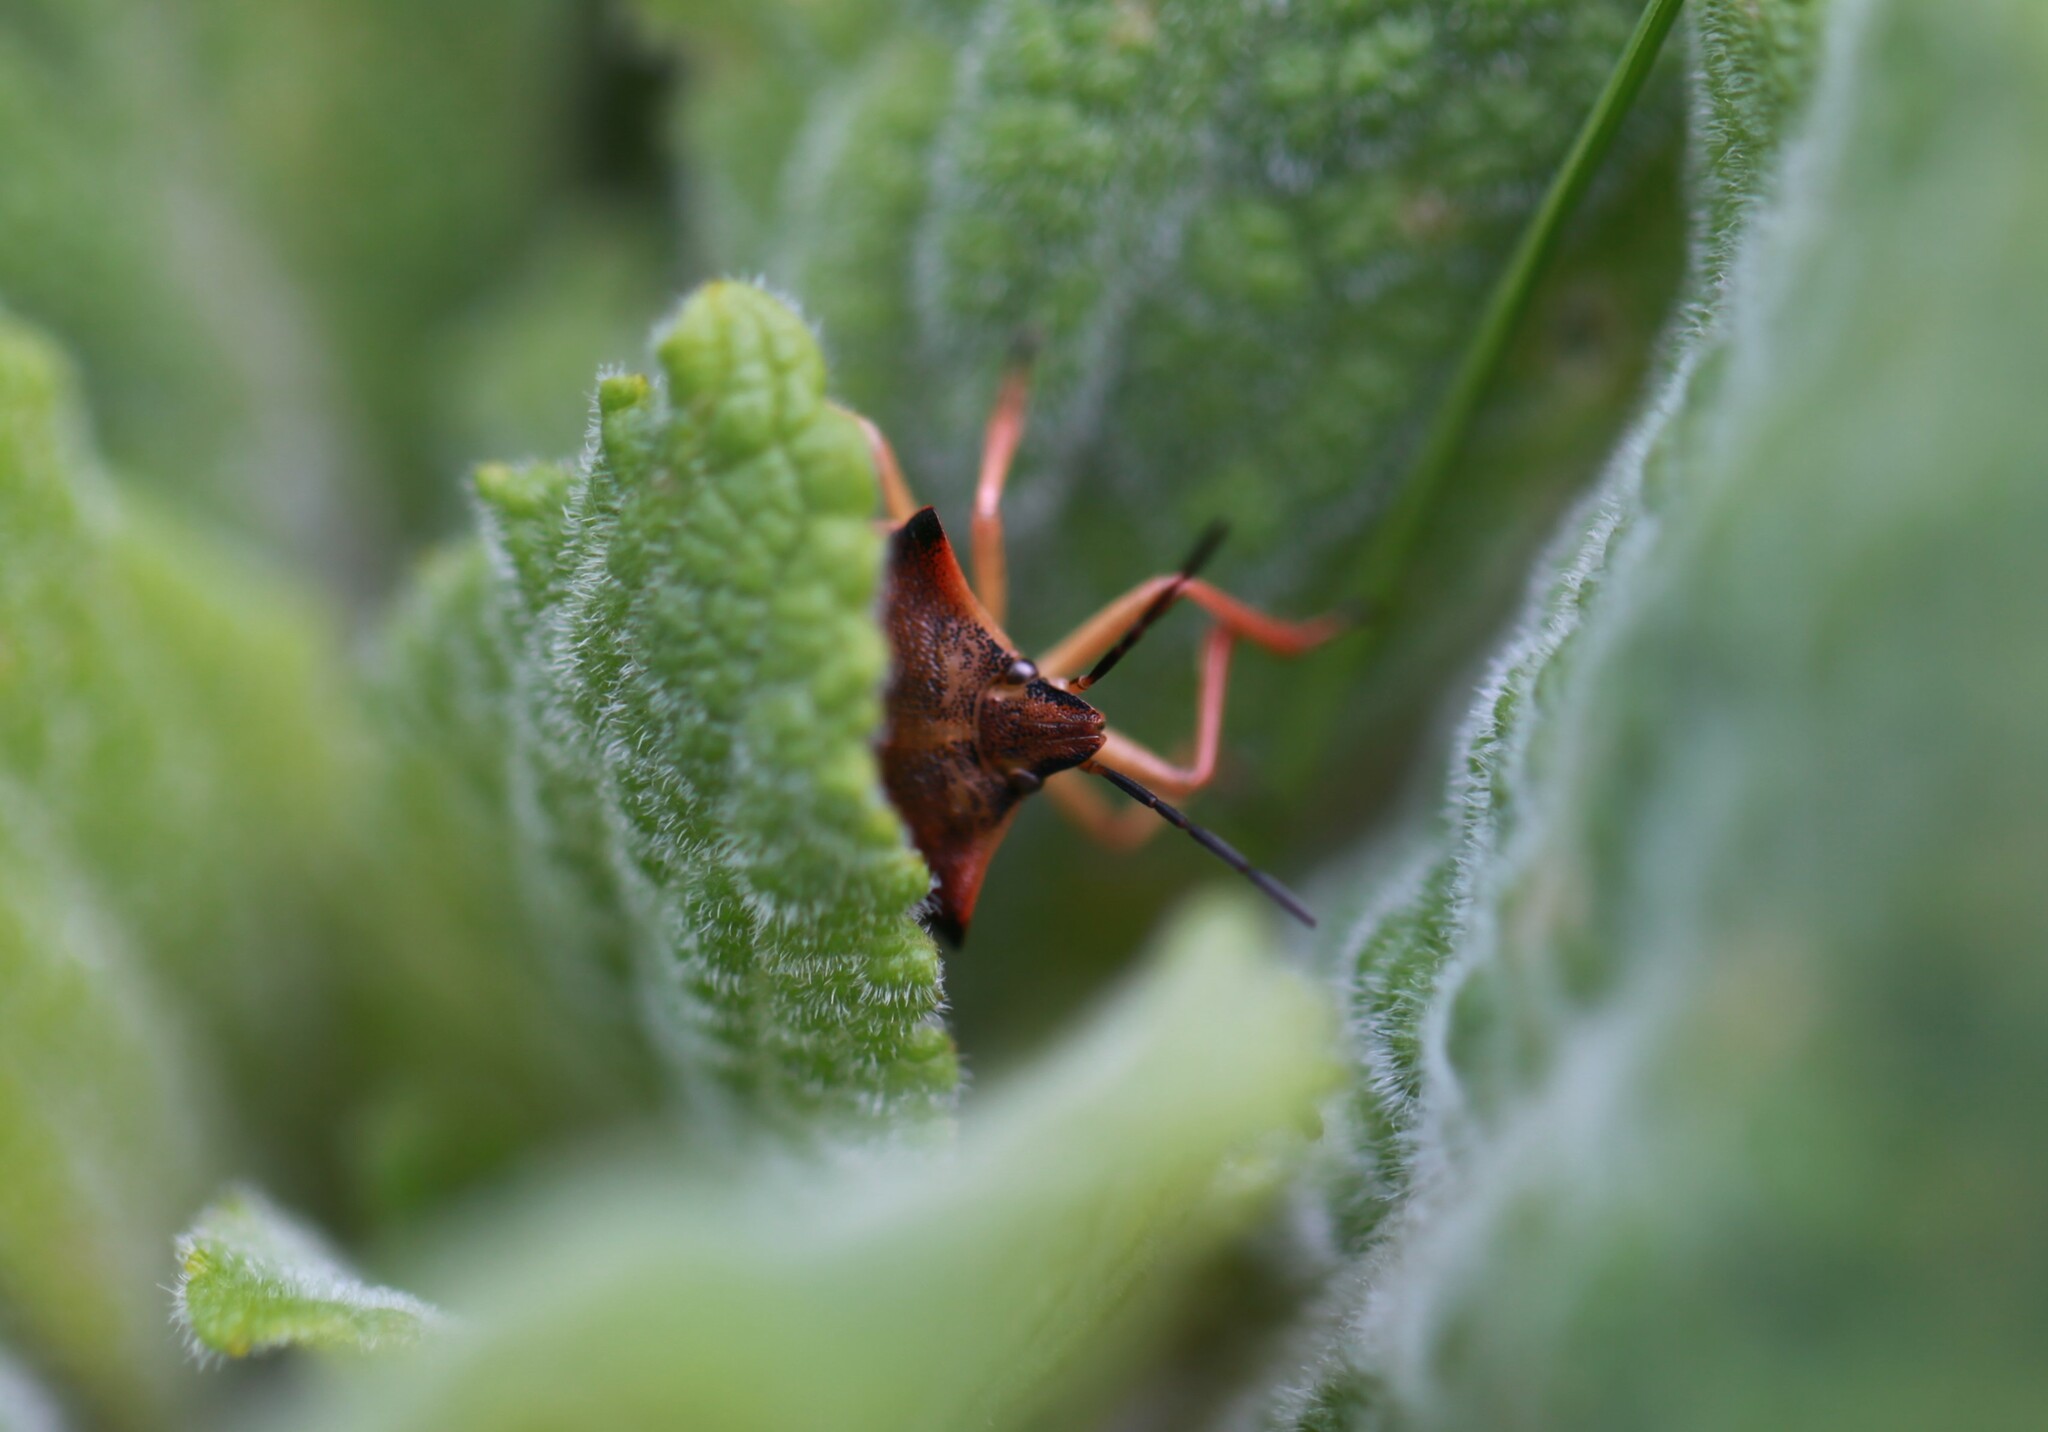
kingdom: Animalia
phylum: Arthropoda
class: Insecta
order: Hemiptera
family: Pentatomidae
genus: Carpocoris
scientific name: Carpocoris fuscispinus
